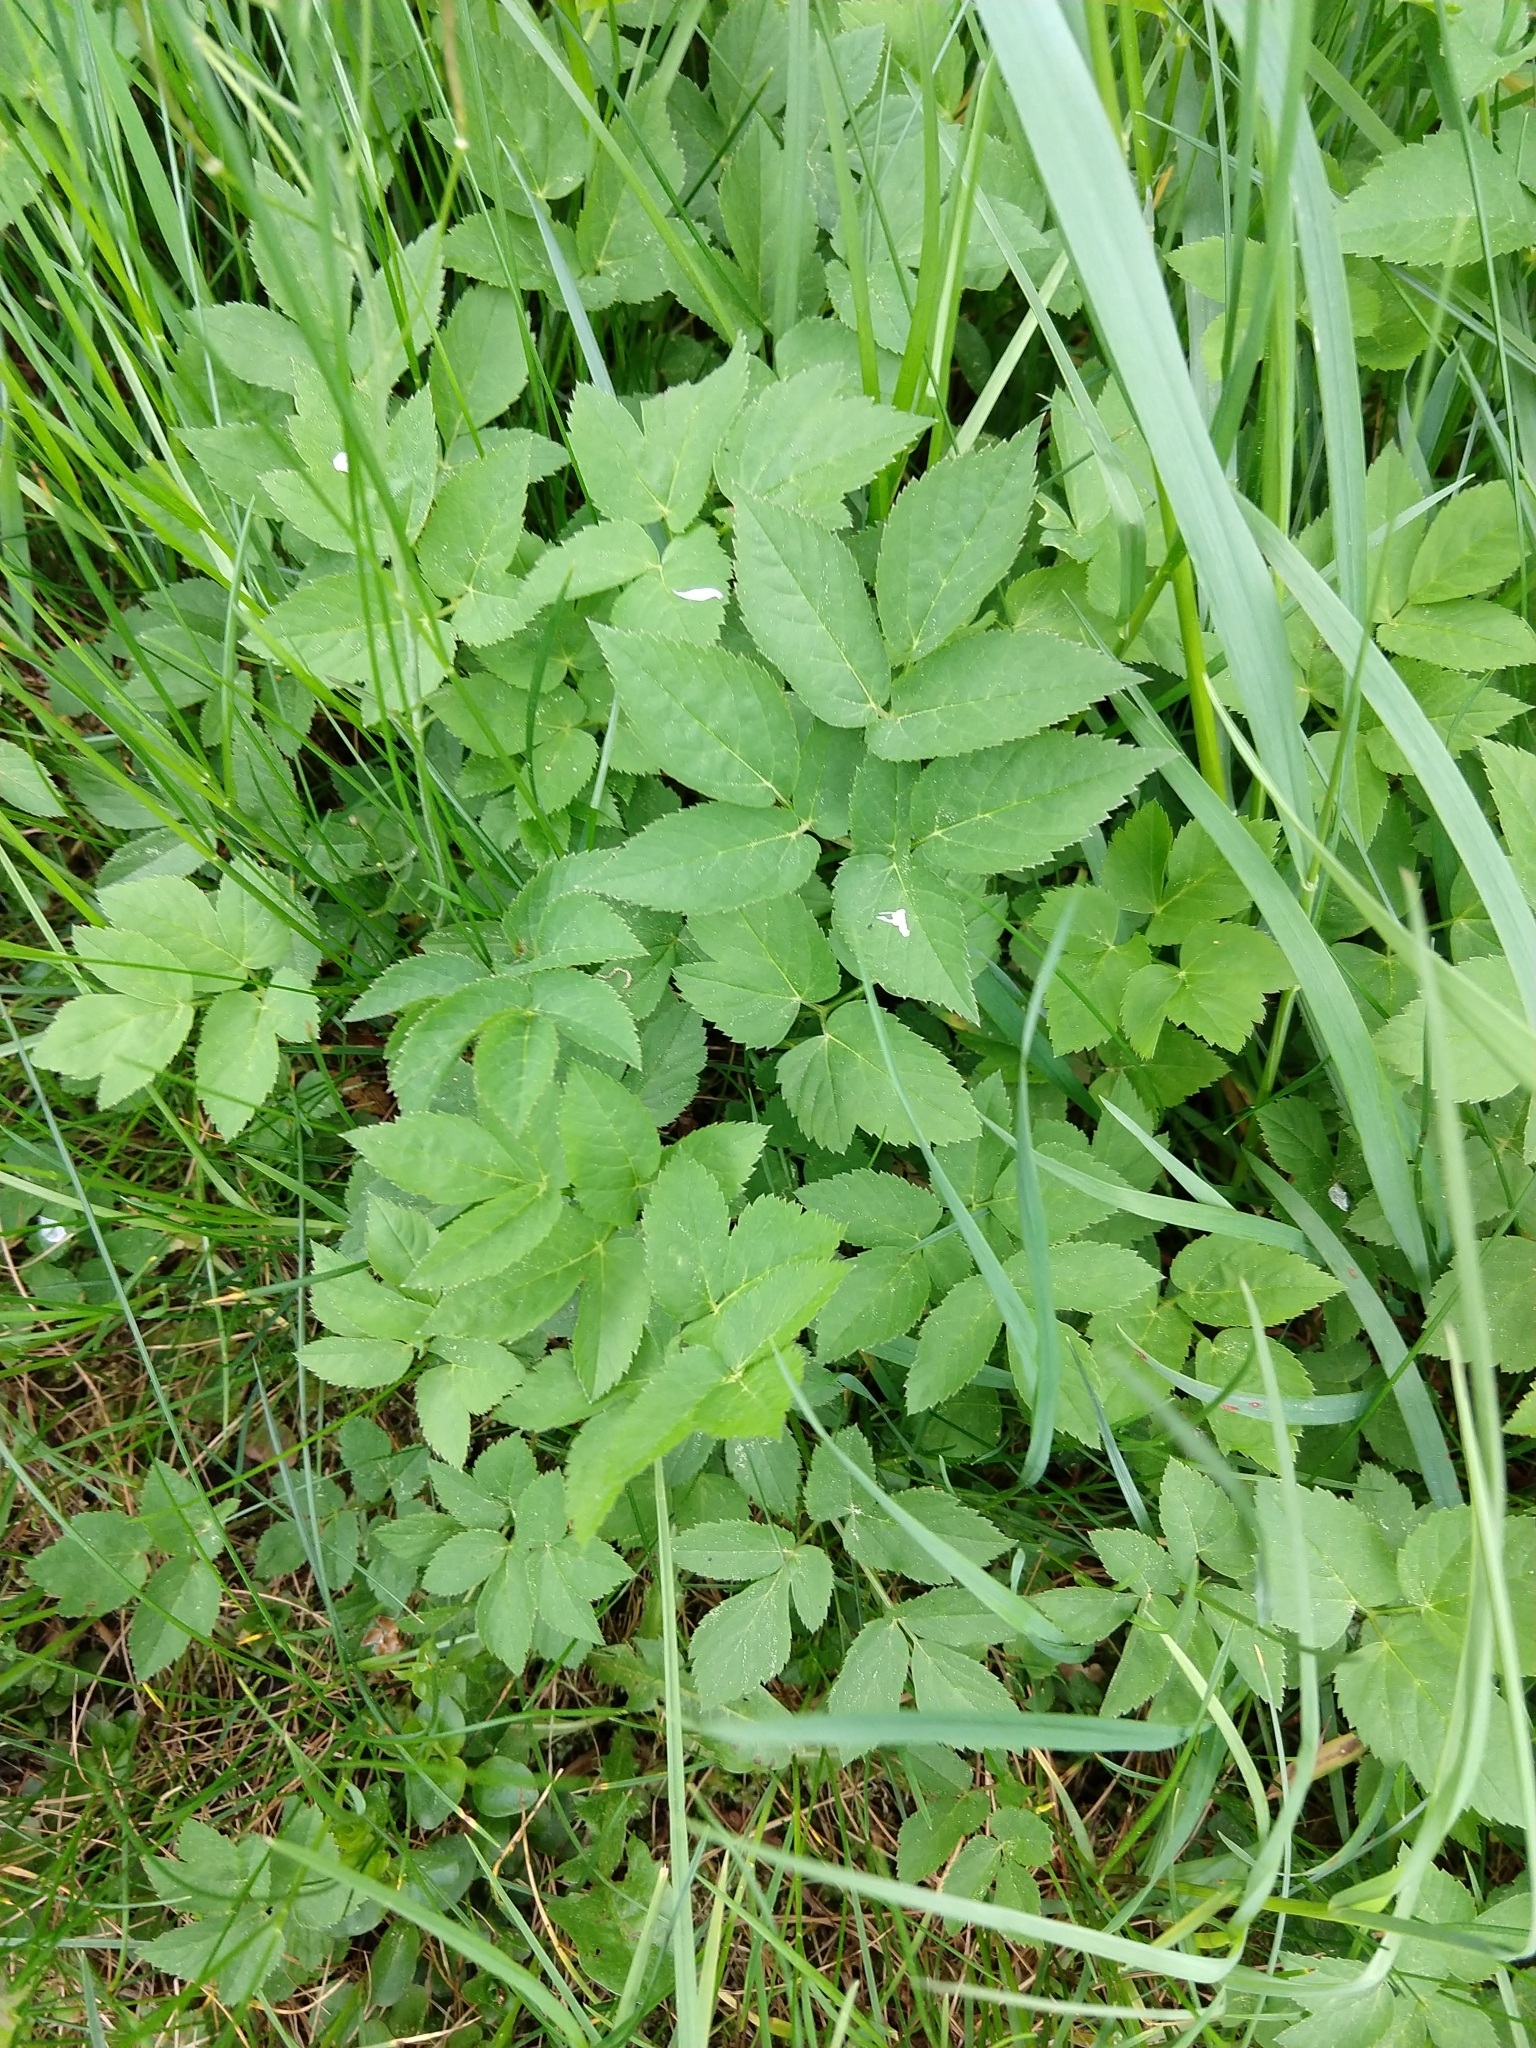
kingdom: Plantae
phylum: Tracheophyta
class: Magnoliopsida
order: Apiales
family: Apiaceae
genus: Aegopodium
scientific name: Aegopodium podagraria
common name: Ground-elder
